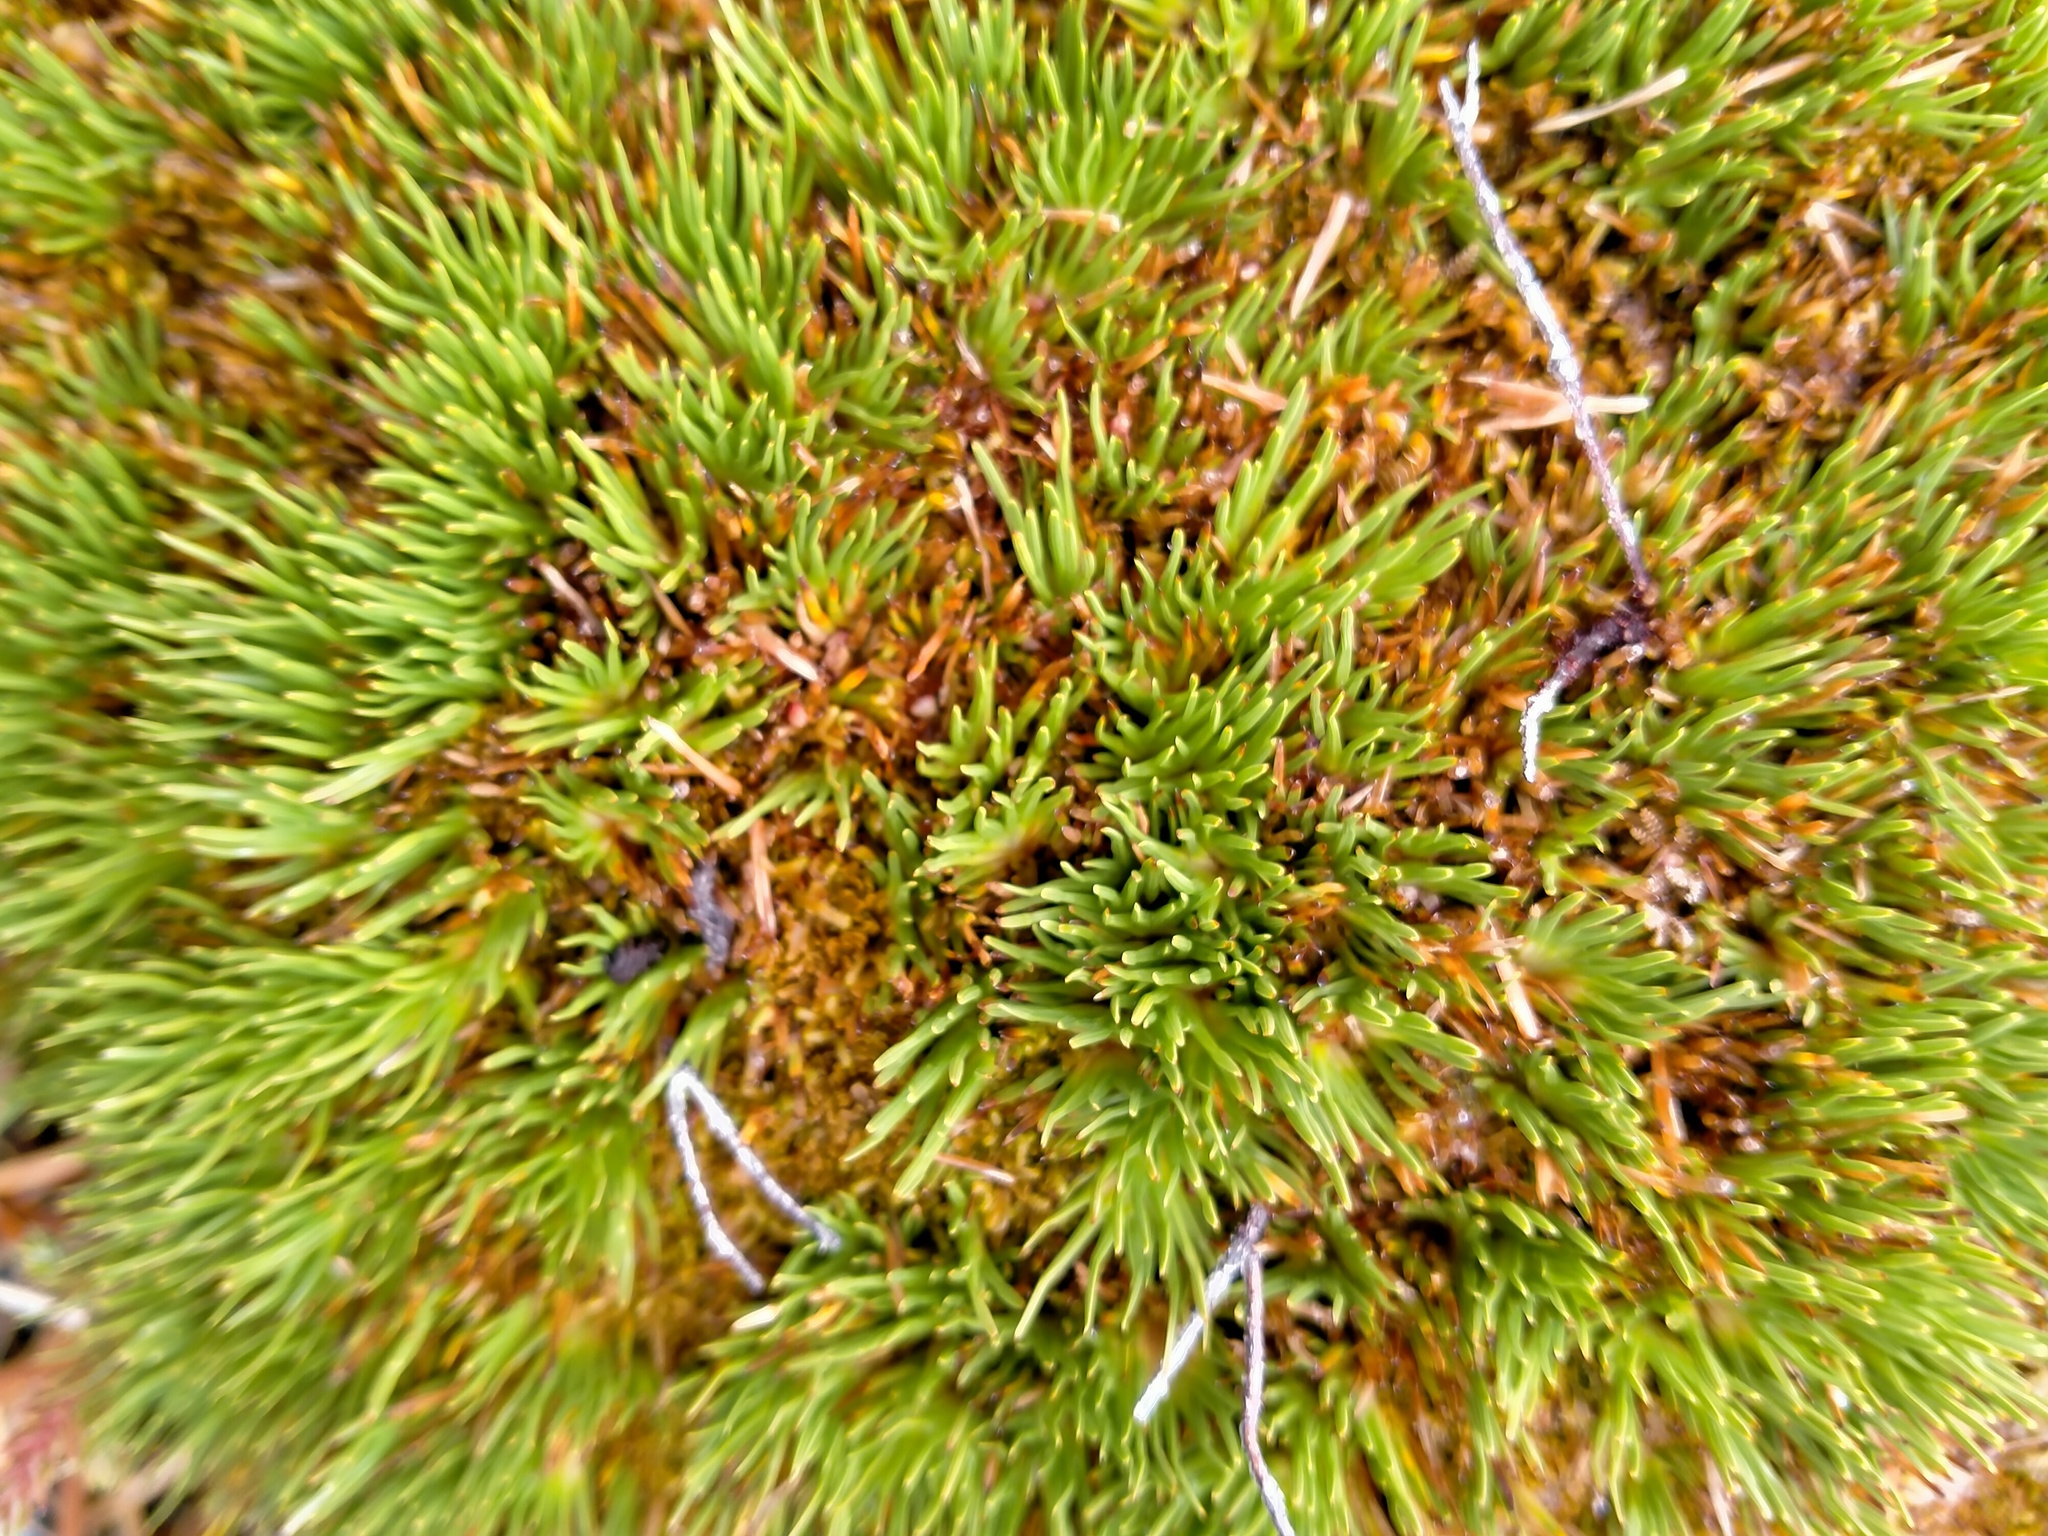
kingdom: Plantae
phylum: Tracheophyta
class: Liliopsida
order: Poales
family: Cyperaceae
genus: Oreobolus
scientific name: Oreobolus pectinatus
